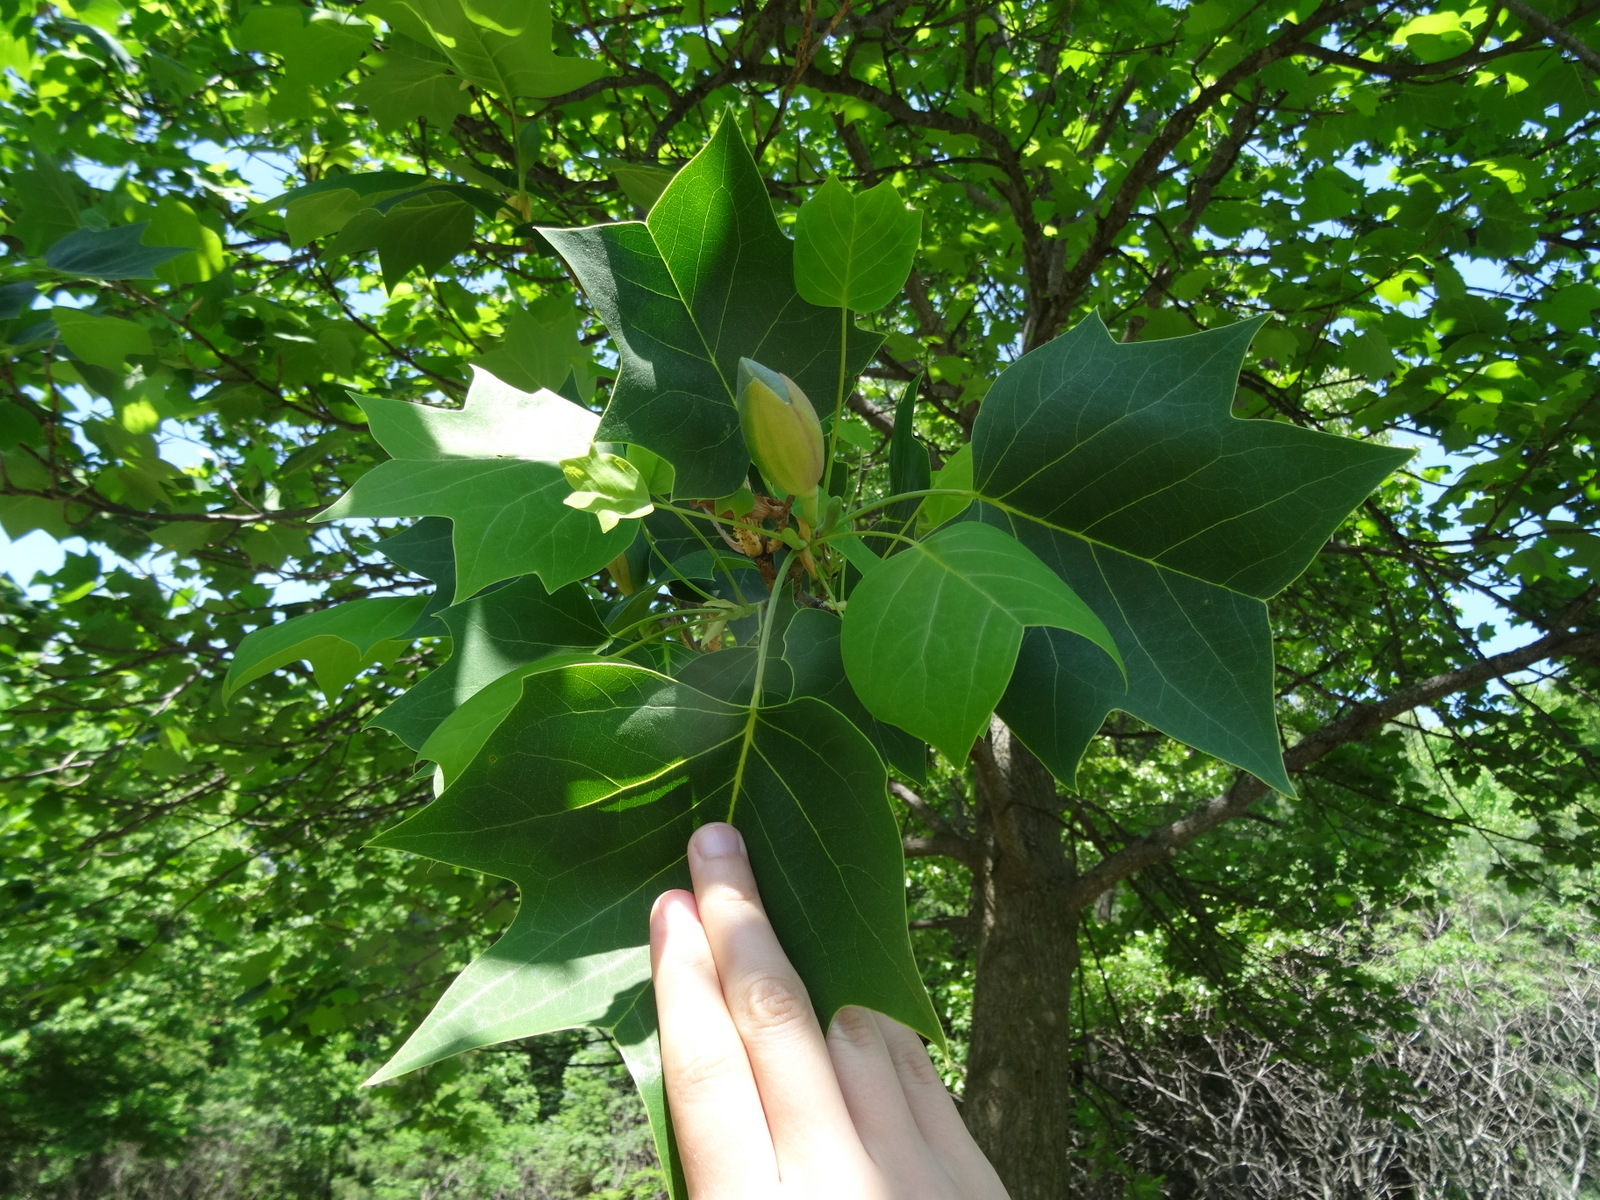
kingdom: Plantae
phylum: Tracheophyta
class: Magnoliopsida
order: Magnoliales
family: Magnoliaceae
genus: Liriodendron
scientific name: Liriodendron tulipifera
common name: Tulip tree
